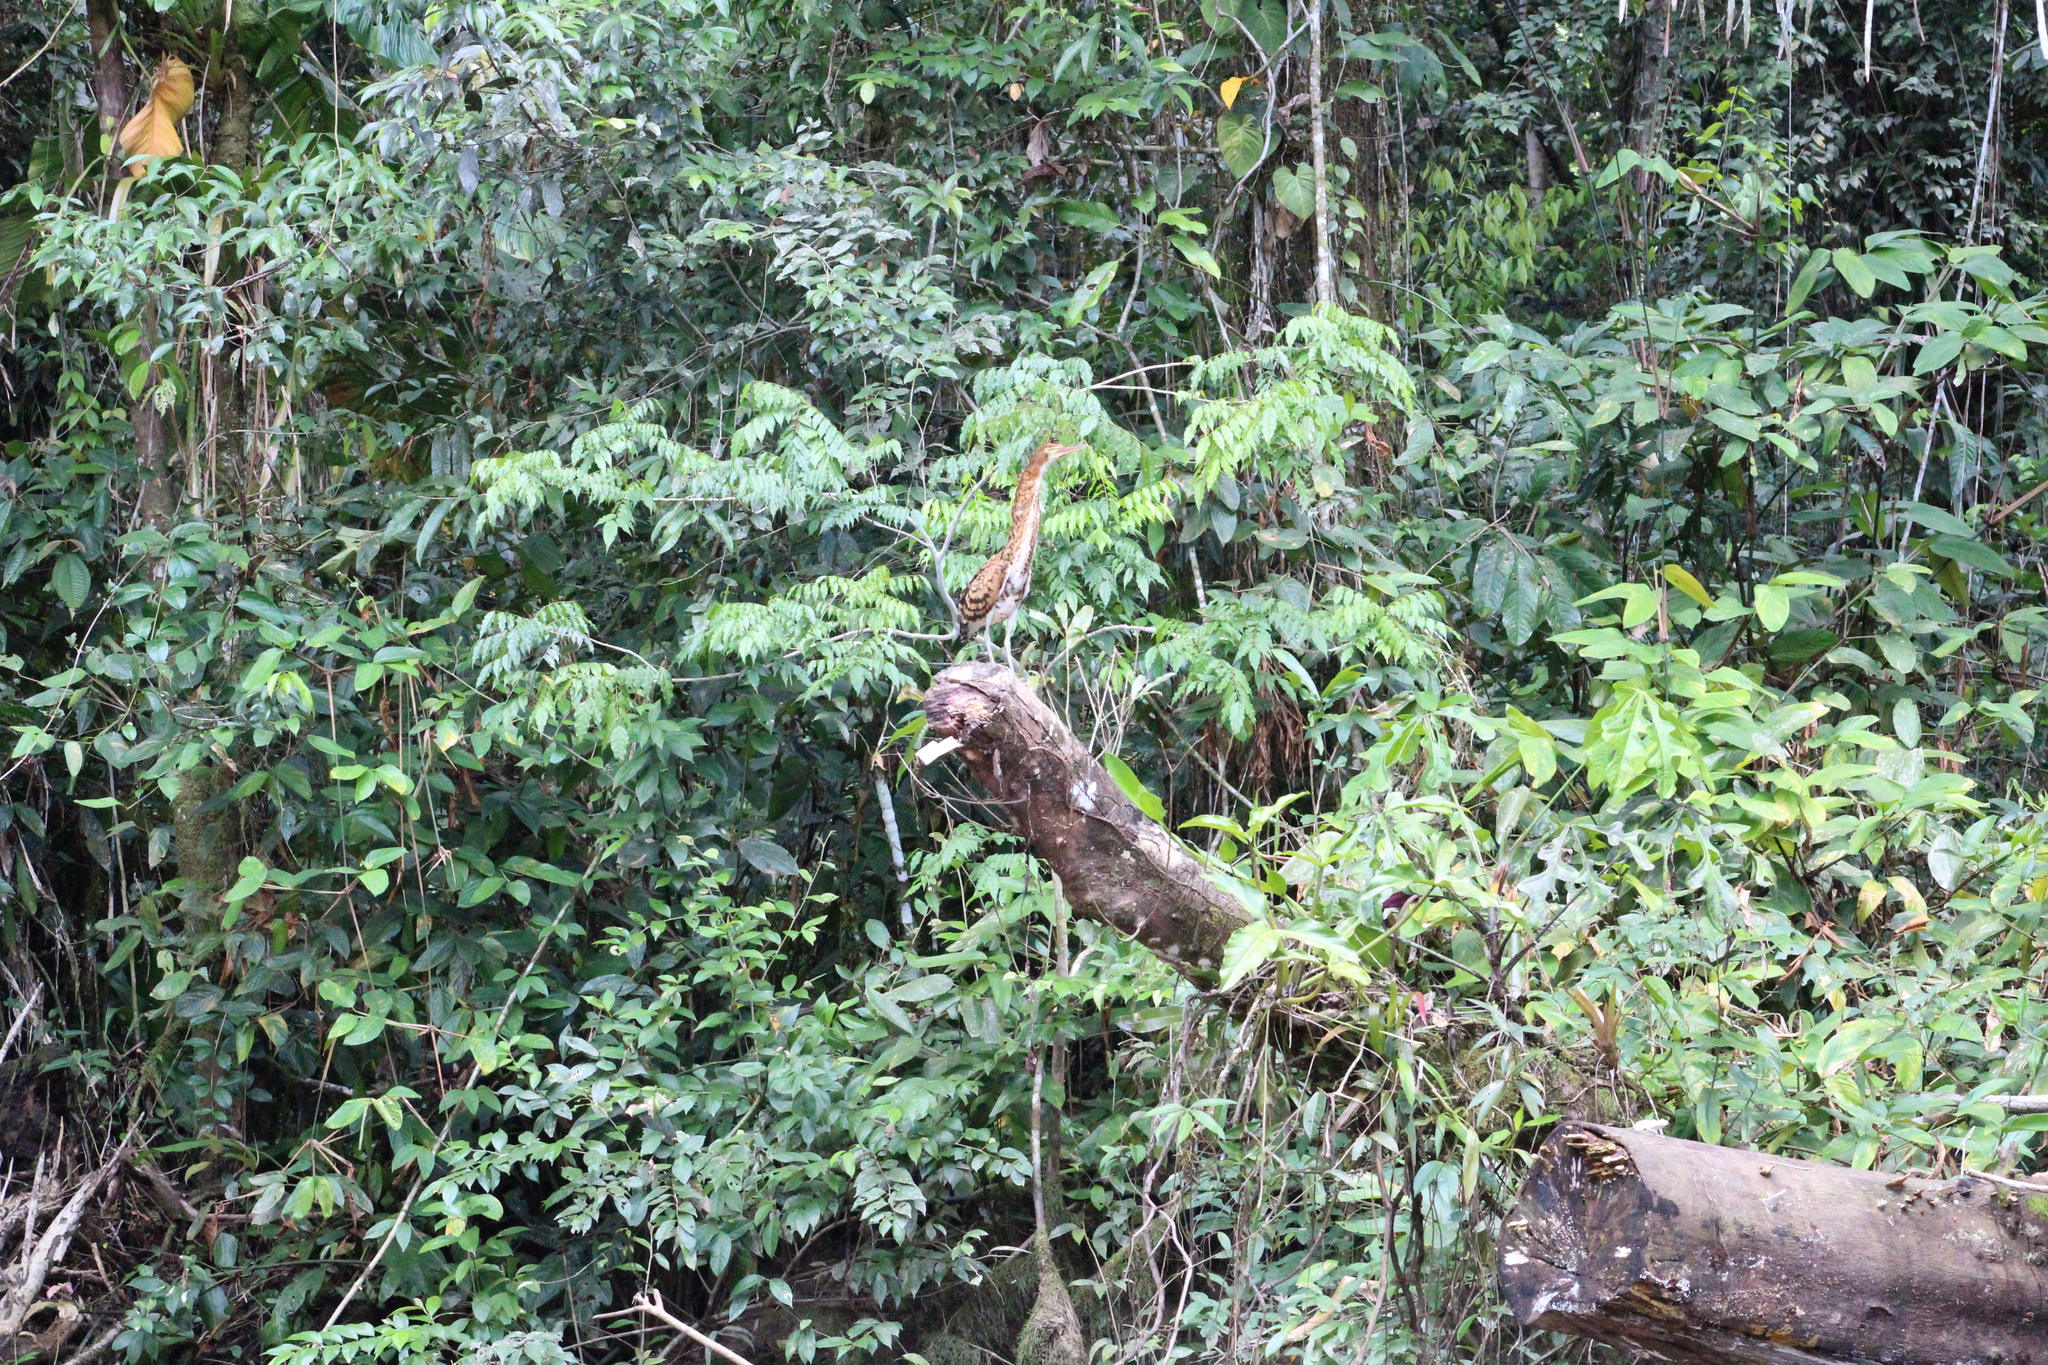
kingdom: Animalia
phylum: Chordata
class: Aves
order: Pelecaniformes
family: Ardeidae
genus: Tigrisoma
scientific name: Tigrisoma lineatum
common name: Rufescent tiger-heron
